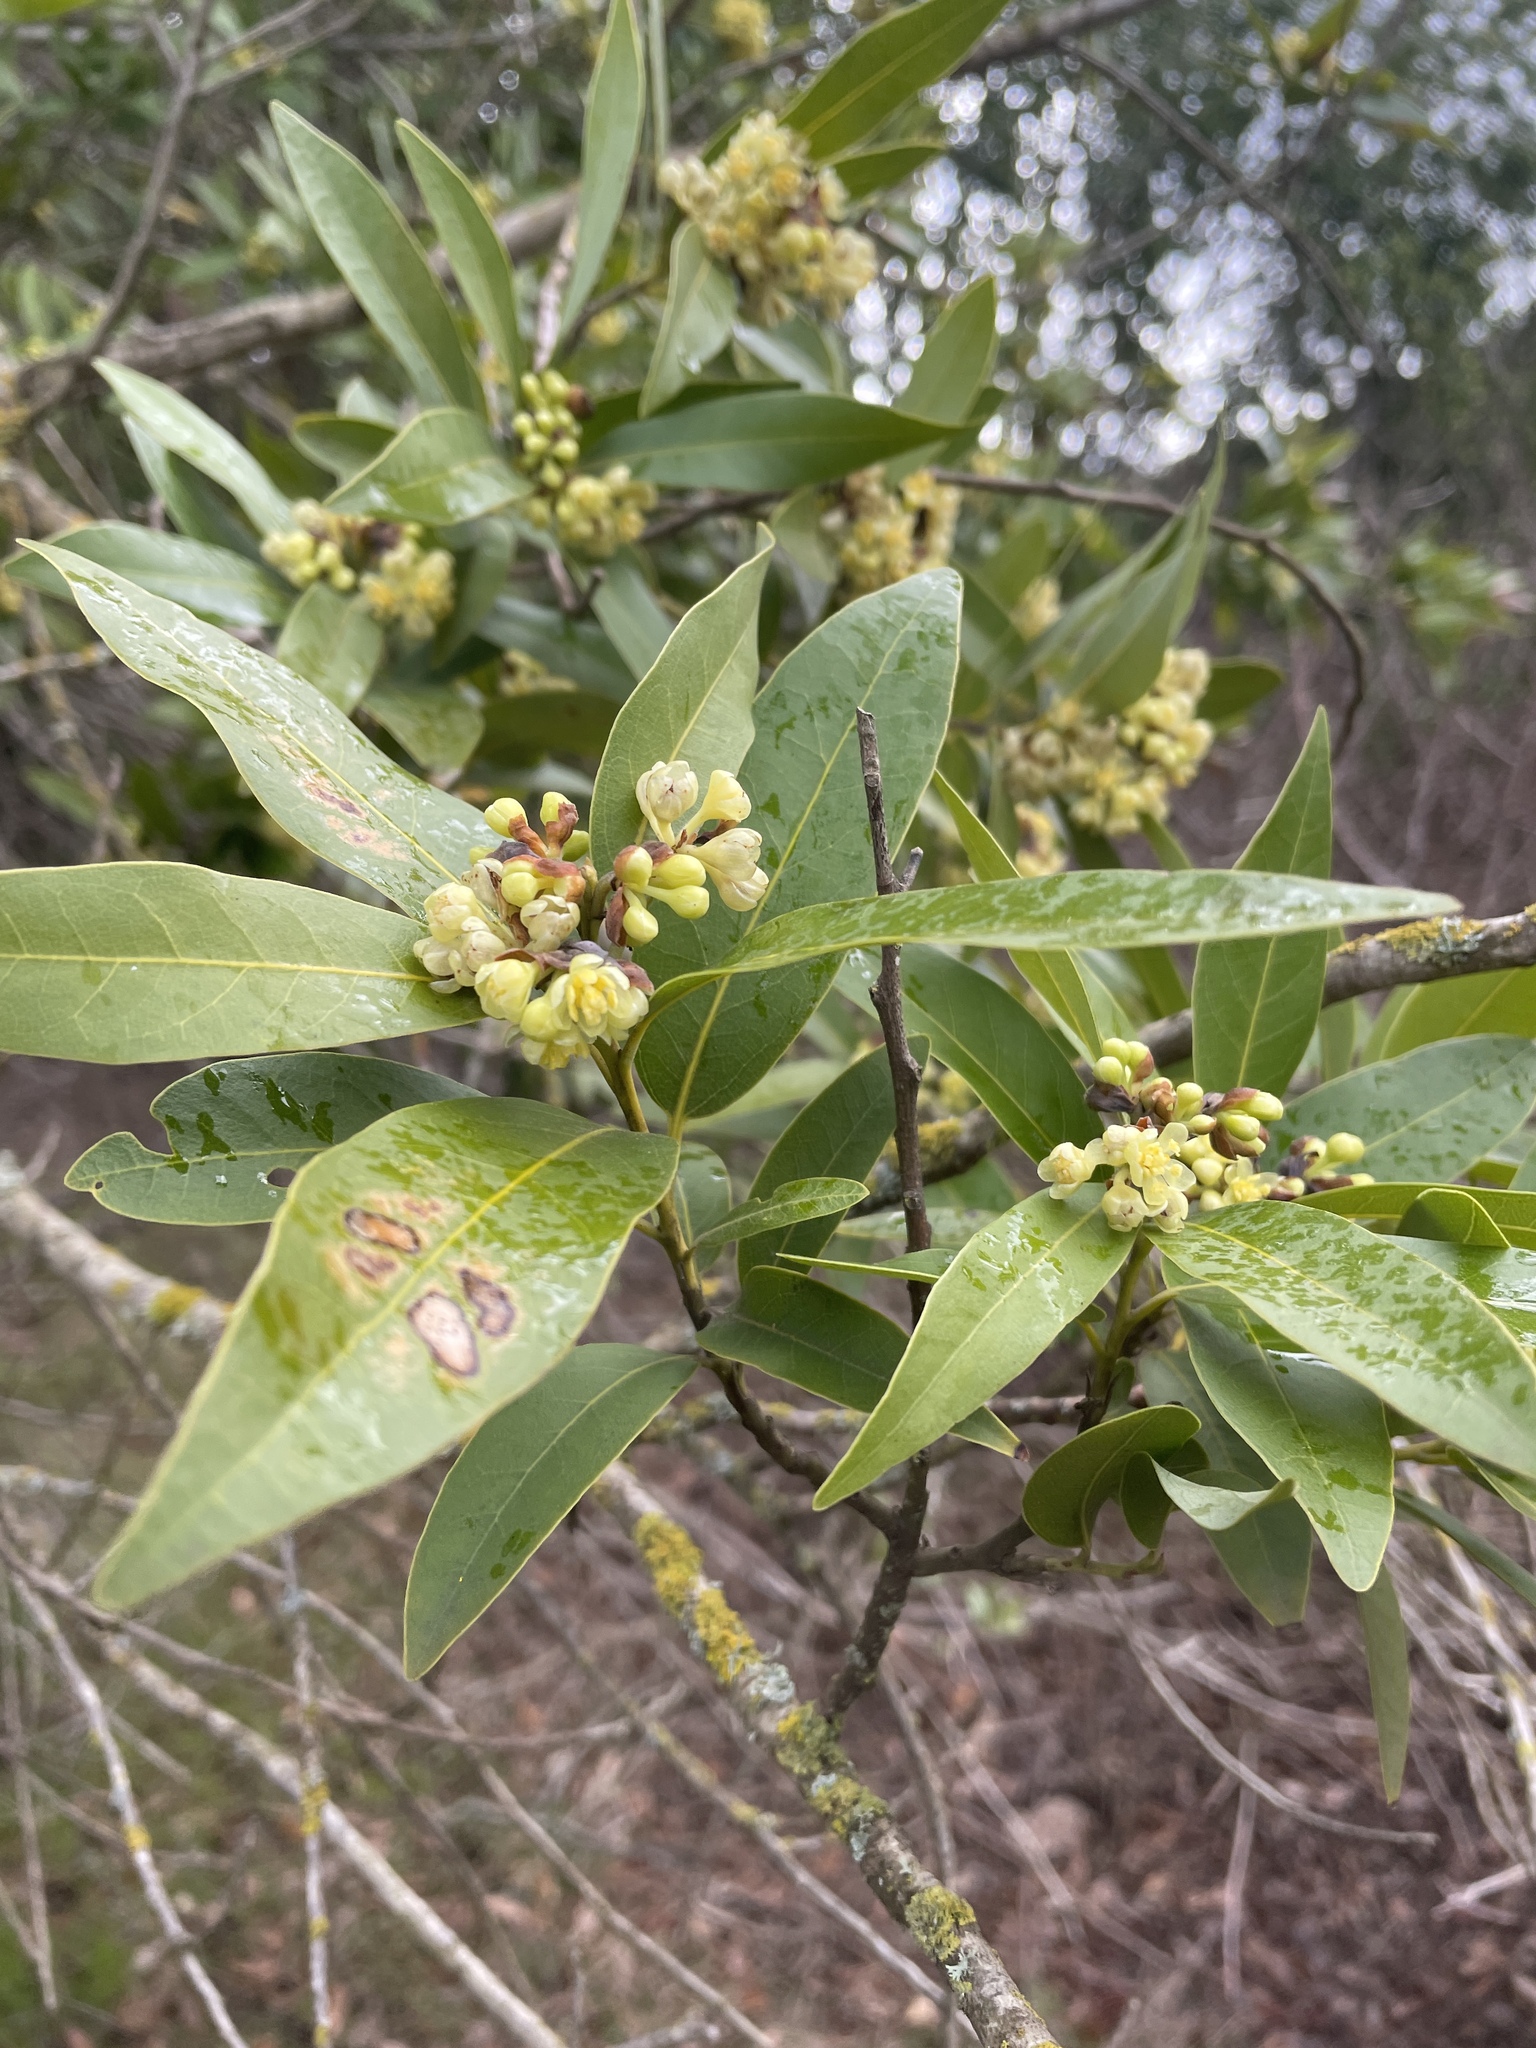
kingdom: Plantae
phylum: Tracheophyta
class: Magnoliopsida
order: Laurales
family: Lauraceae
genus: Umbellularia
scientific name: Umbellularia californica
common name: California bay
